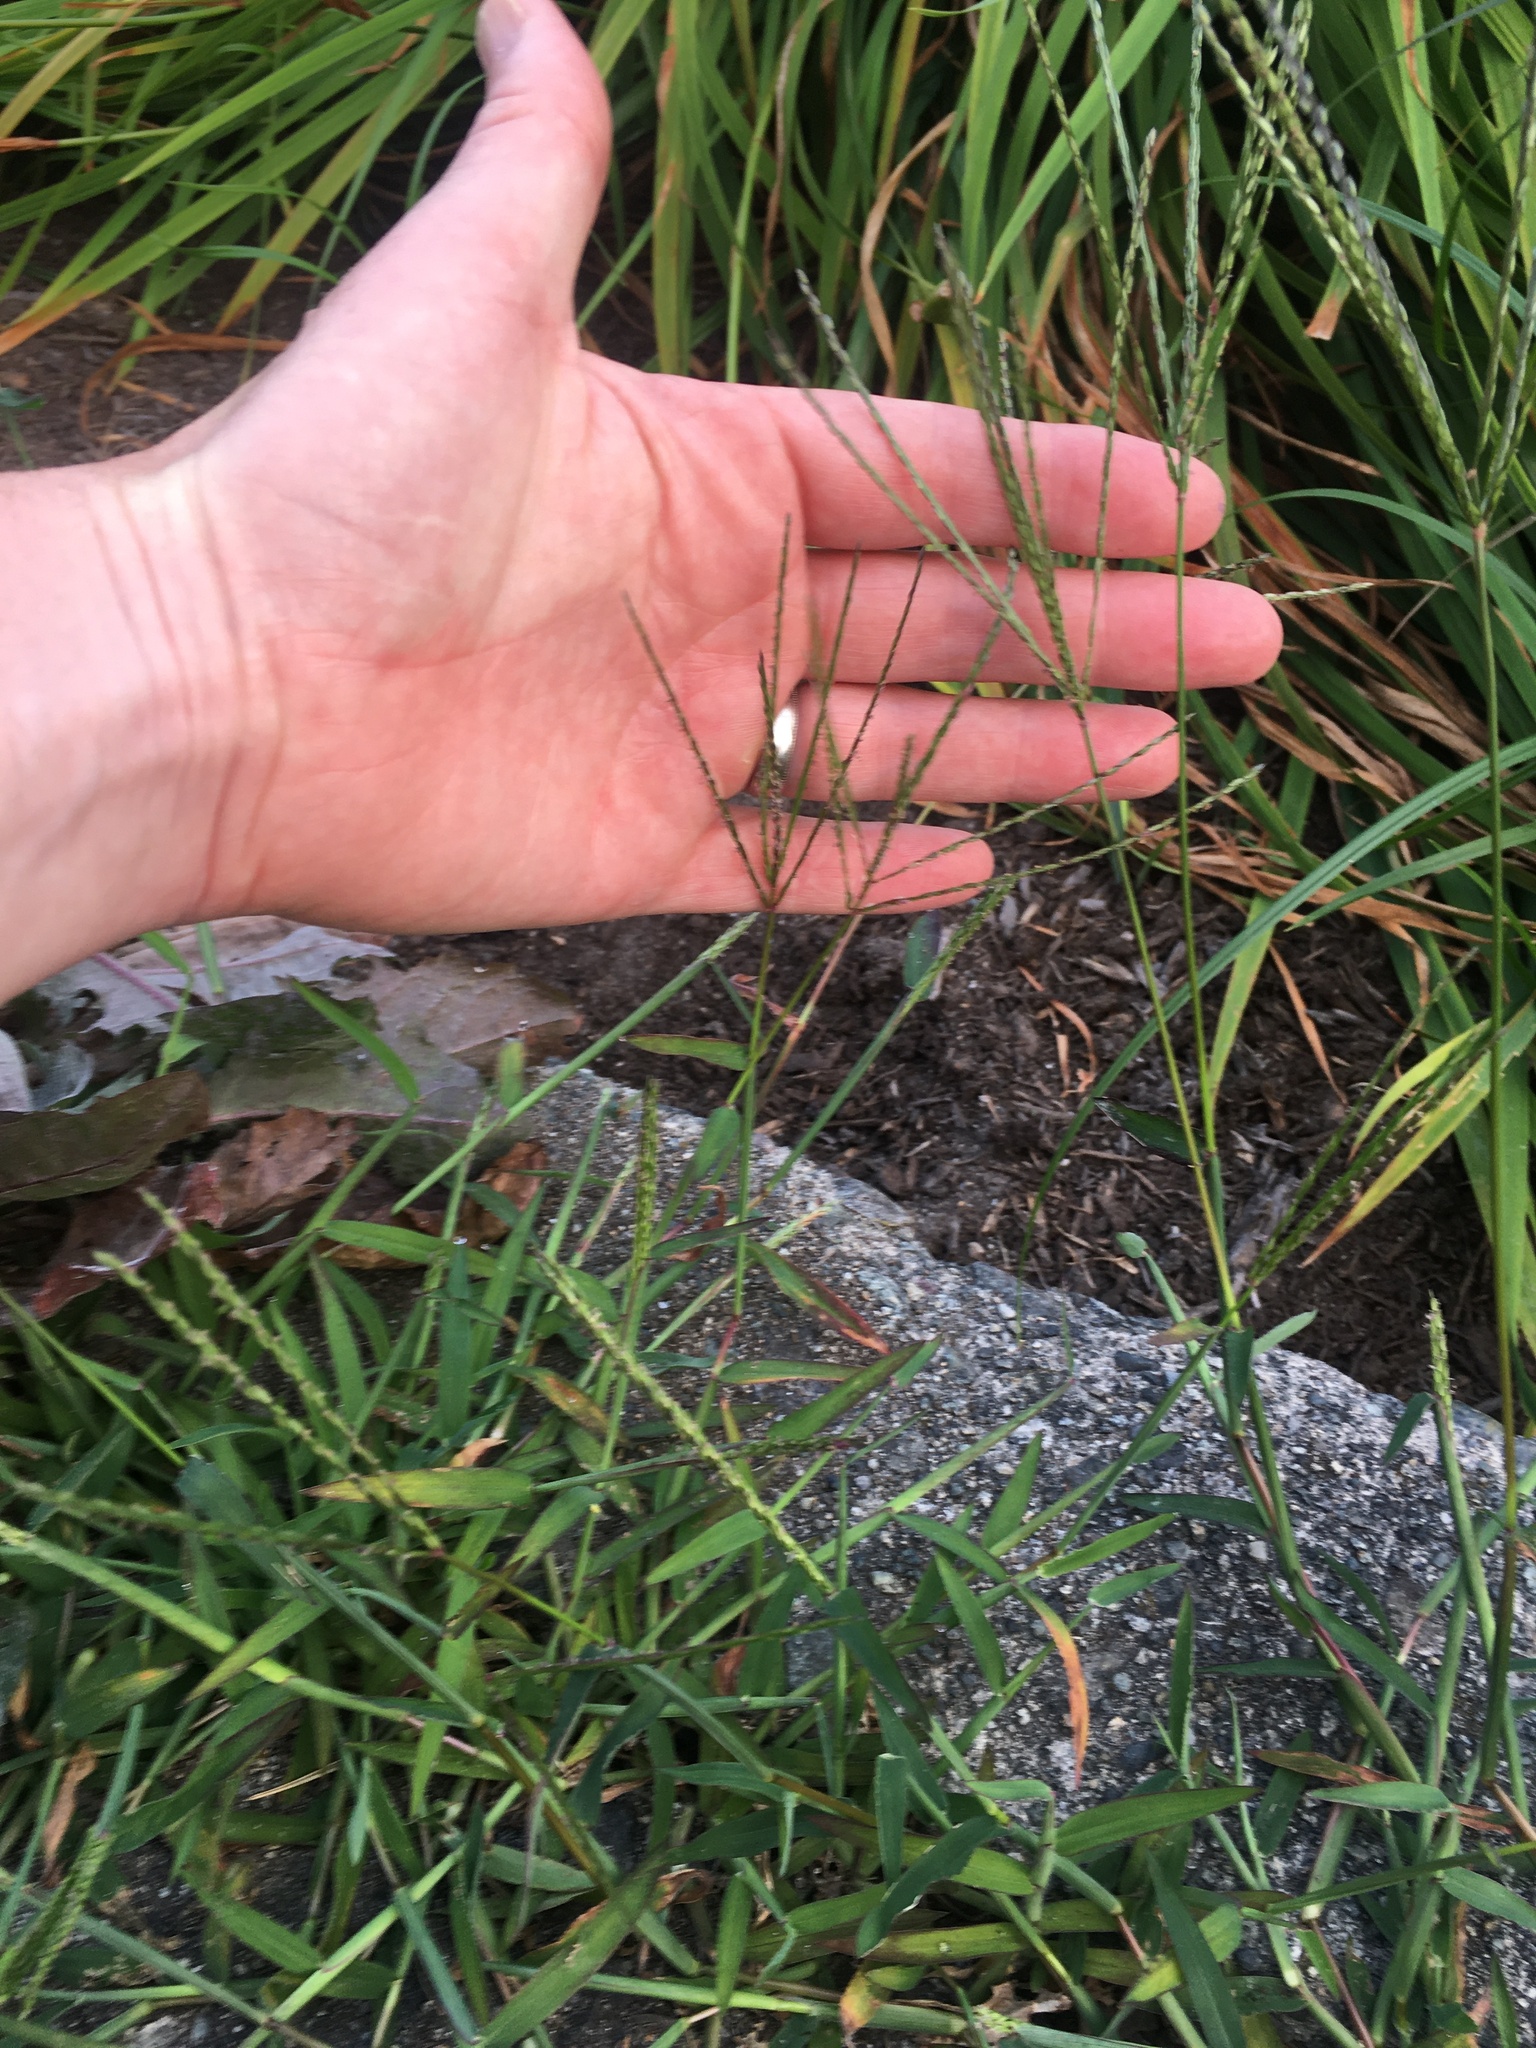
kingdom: Plantae
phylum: Tracheophyta
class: Liliopsida
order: Poales
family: Poaceae
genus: Digitaria
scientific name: Digitaria sanguinalis
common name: Hairy crabgrass
